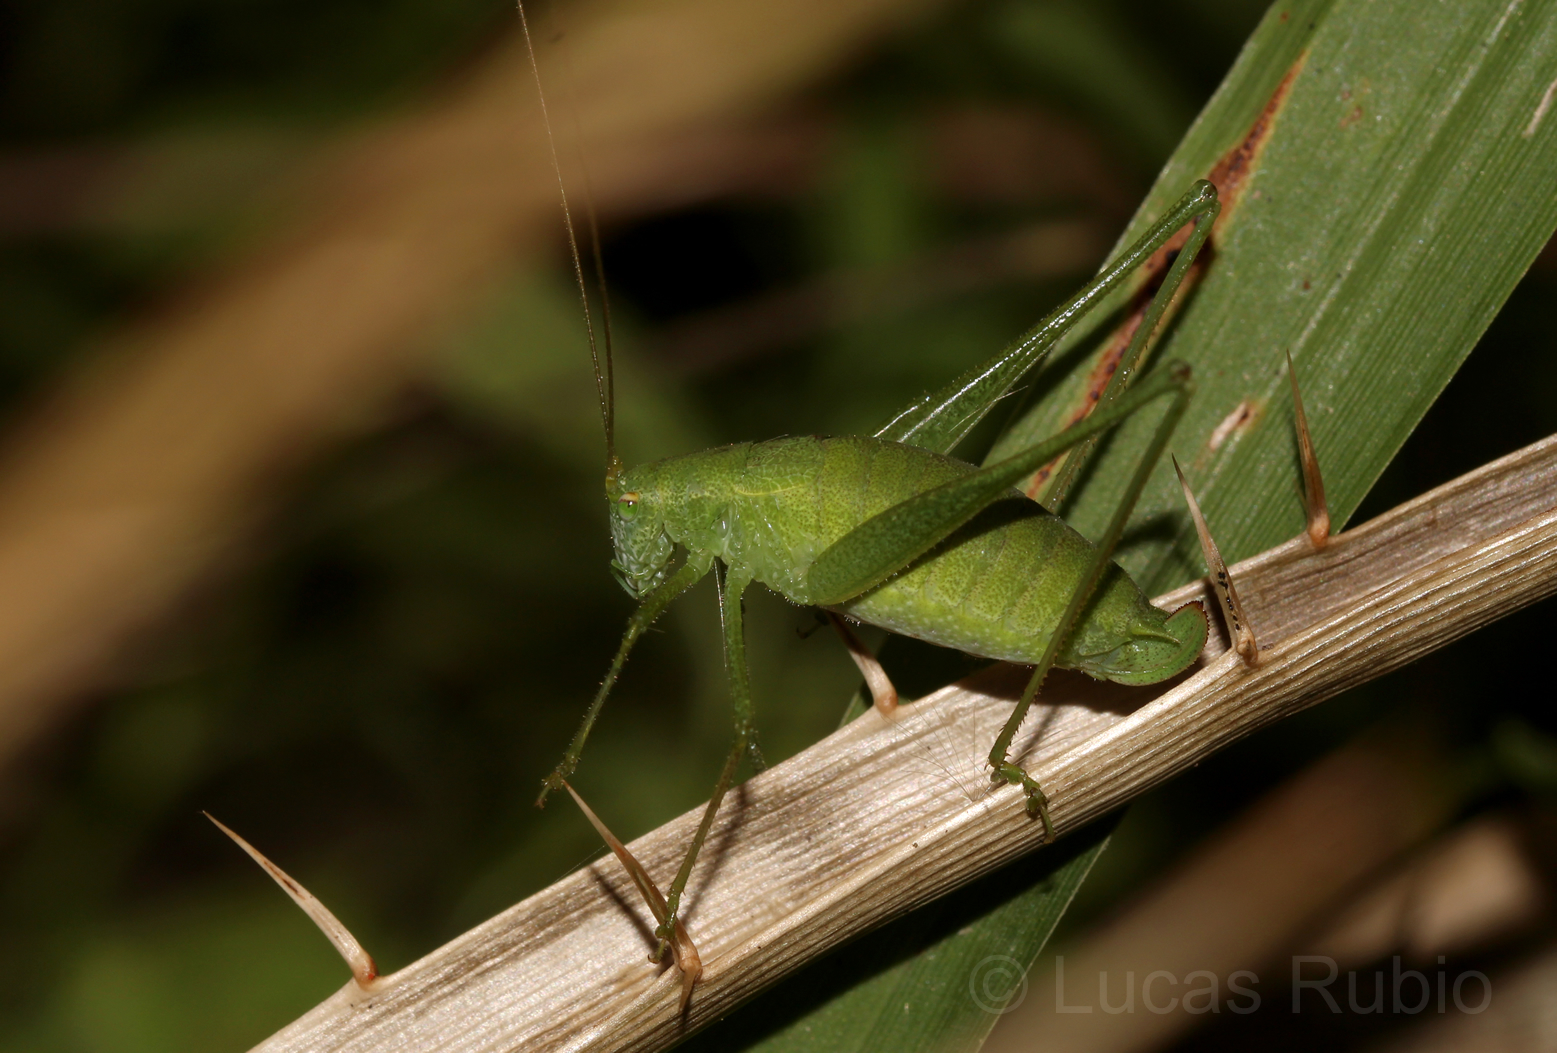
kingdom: Animalia
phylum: Arthropoda
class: Insecta
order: Orthoptera
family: Tettigoniidae
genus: Anisophya
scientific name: Anisophya punctinervis
